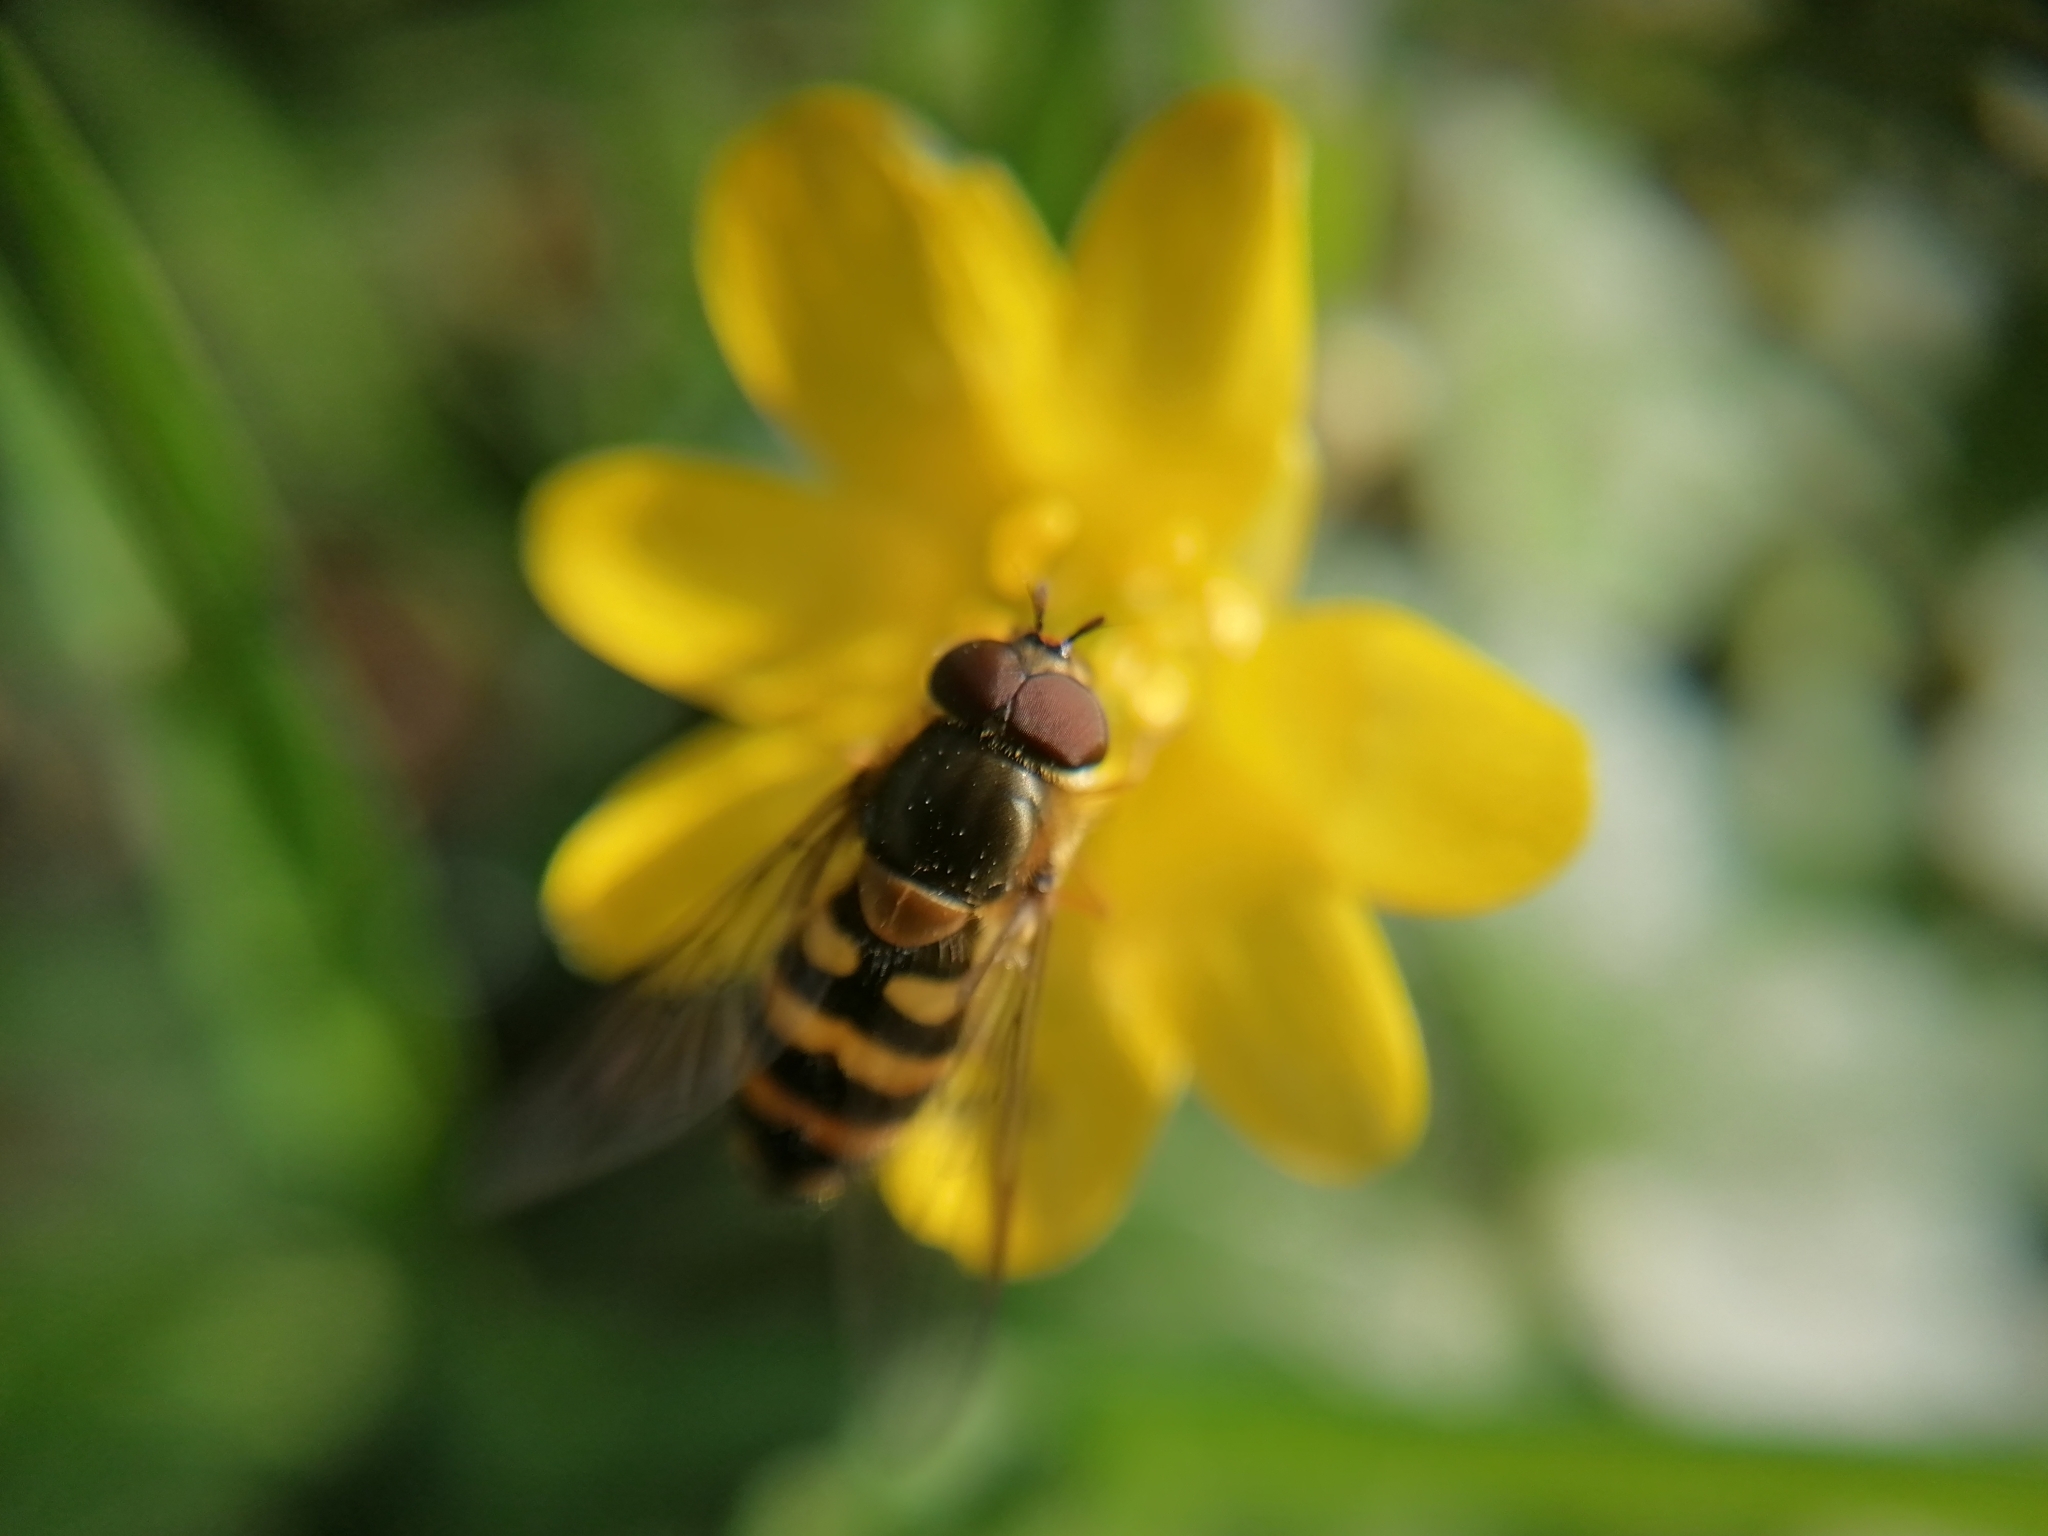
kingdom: Animalia
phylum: Arthropoda
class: Insecta
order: Diptera
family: Syrphidae
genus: Syrphus
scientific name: Syrphus torvus
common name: Hairy-eyed flower fly
